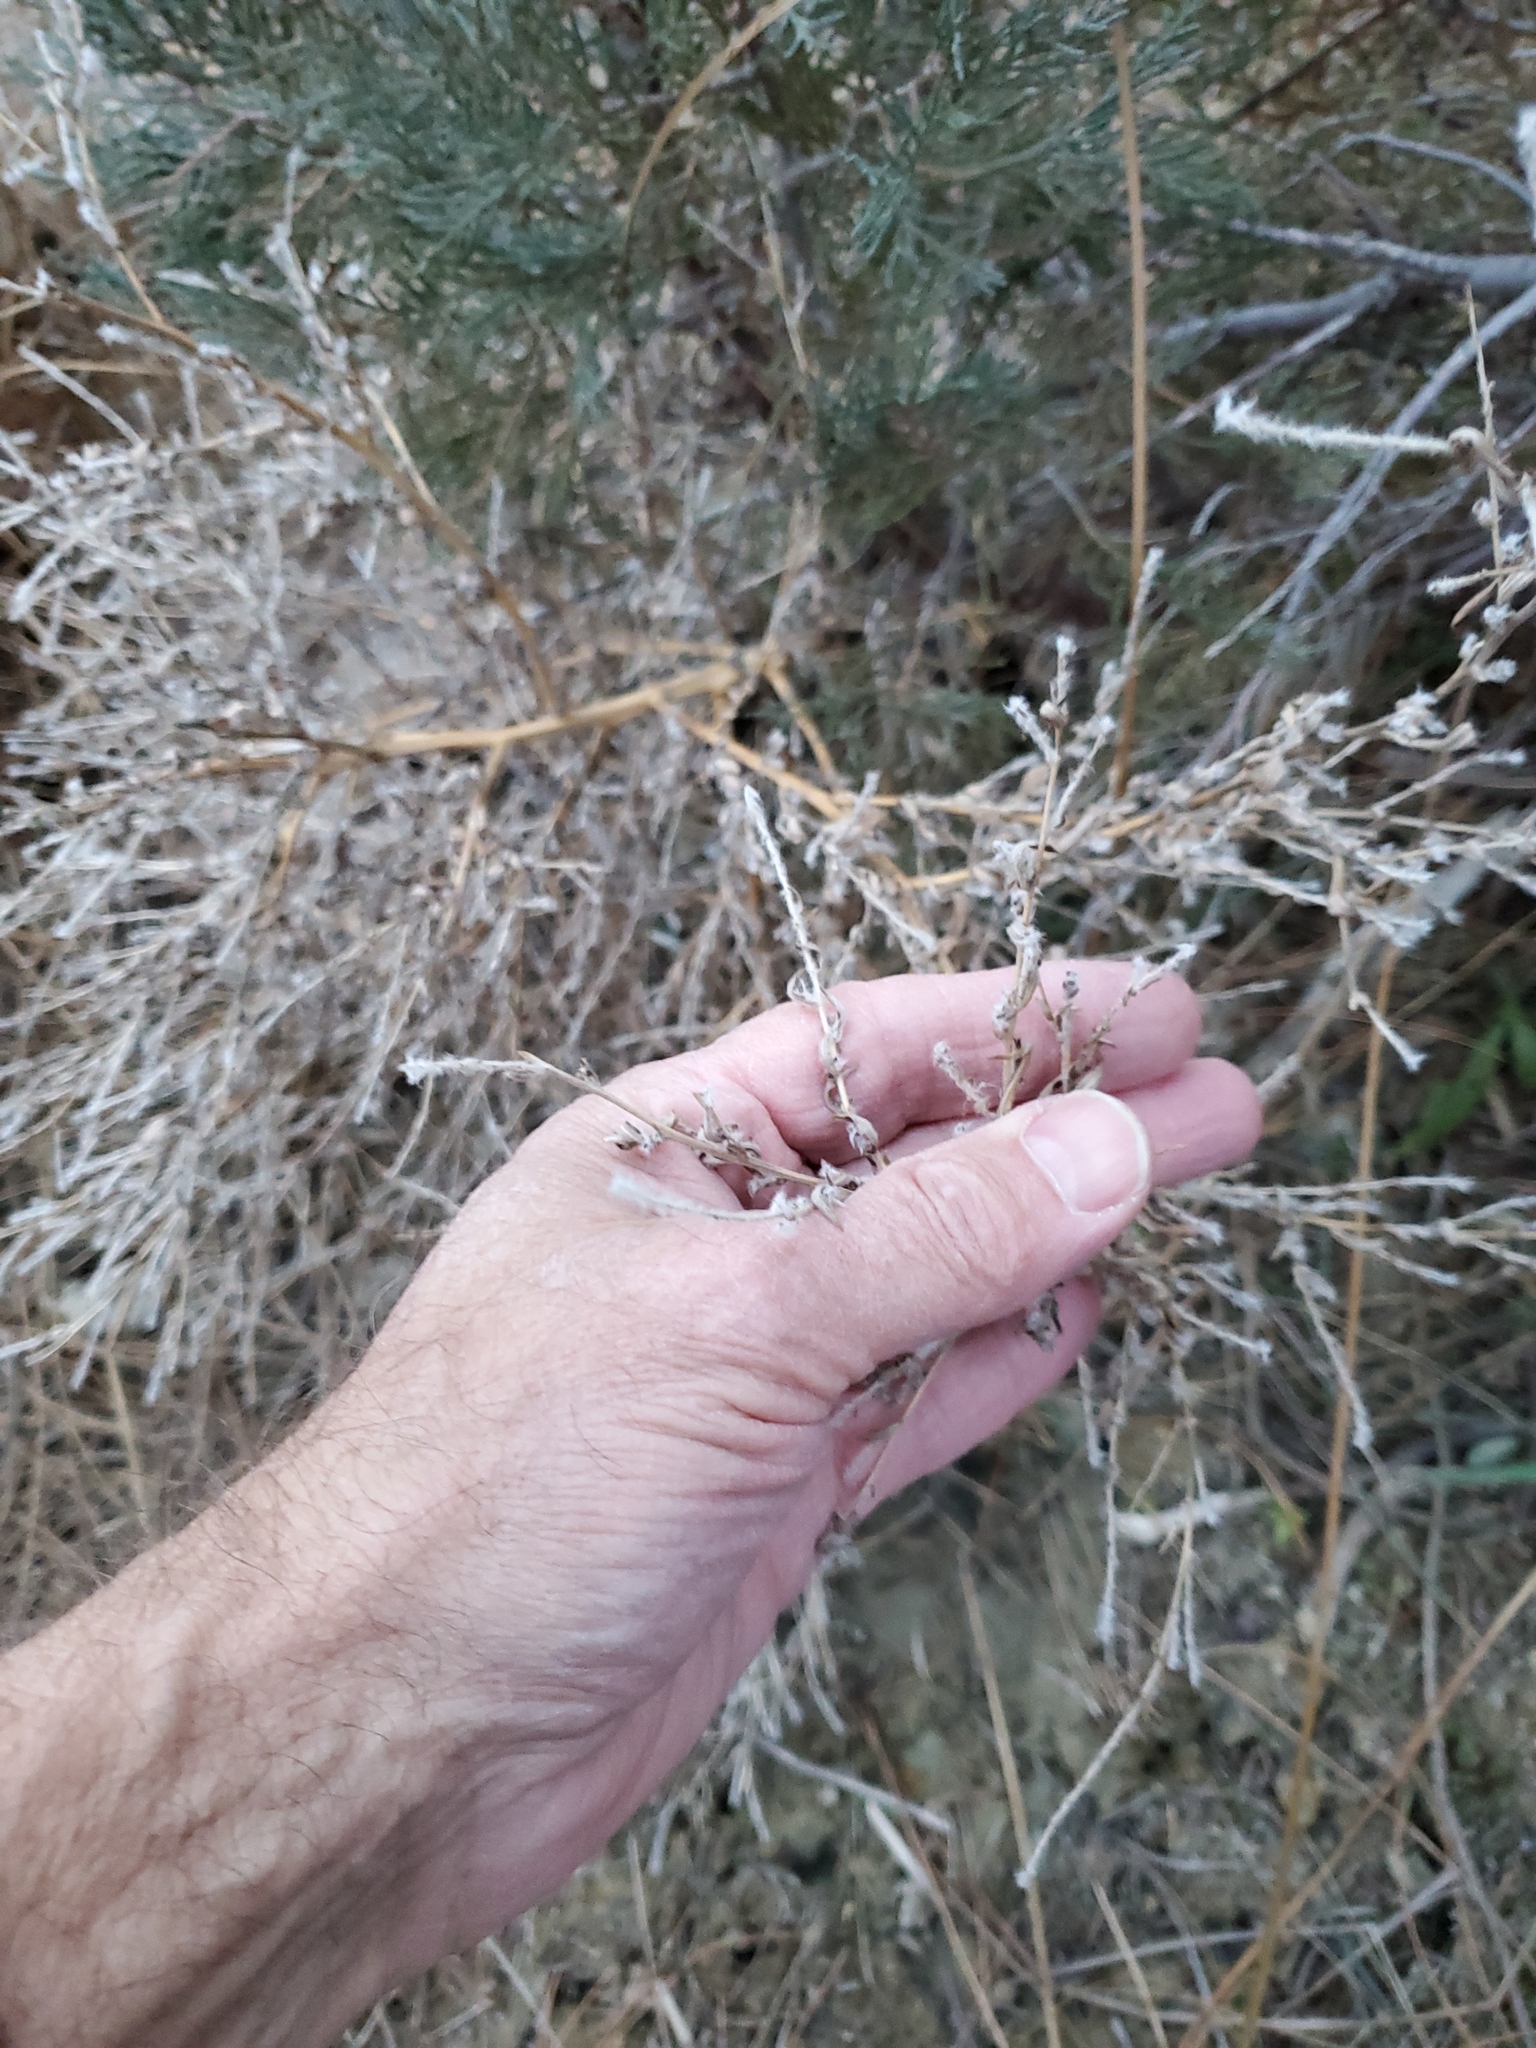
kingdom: Plantae
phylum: Tracheophyta
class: Magnoliopsida
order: Caryophyllales
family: Amaranthaceae
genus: Bassia
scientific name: Bassia scoparia
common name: Belvedere
